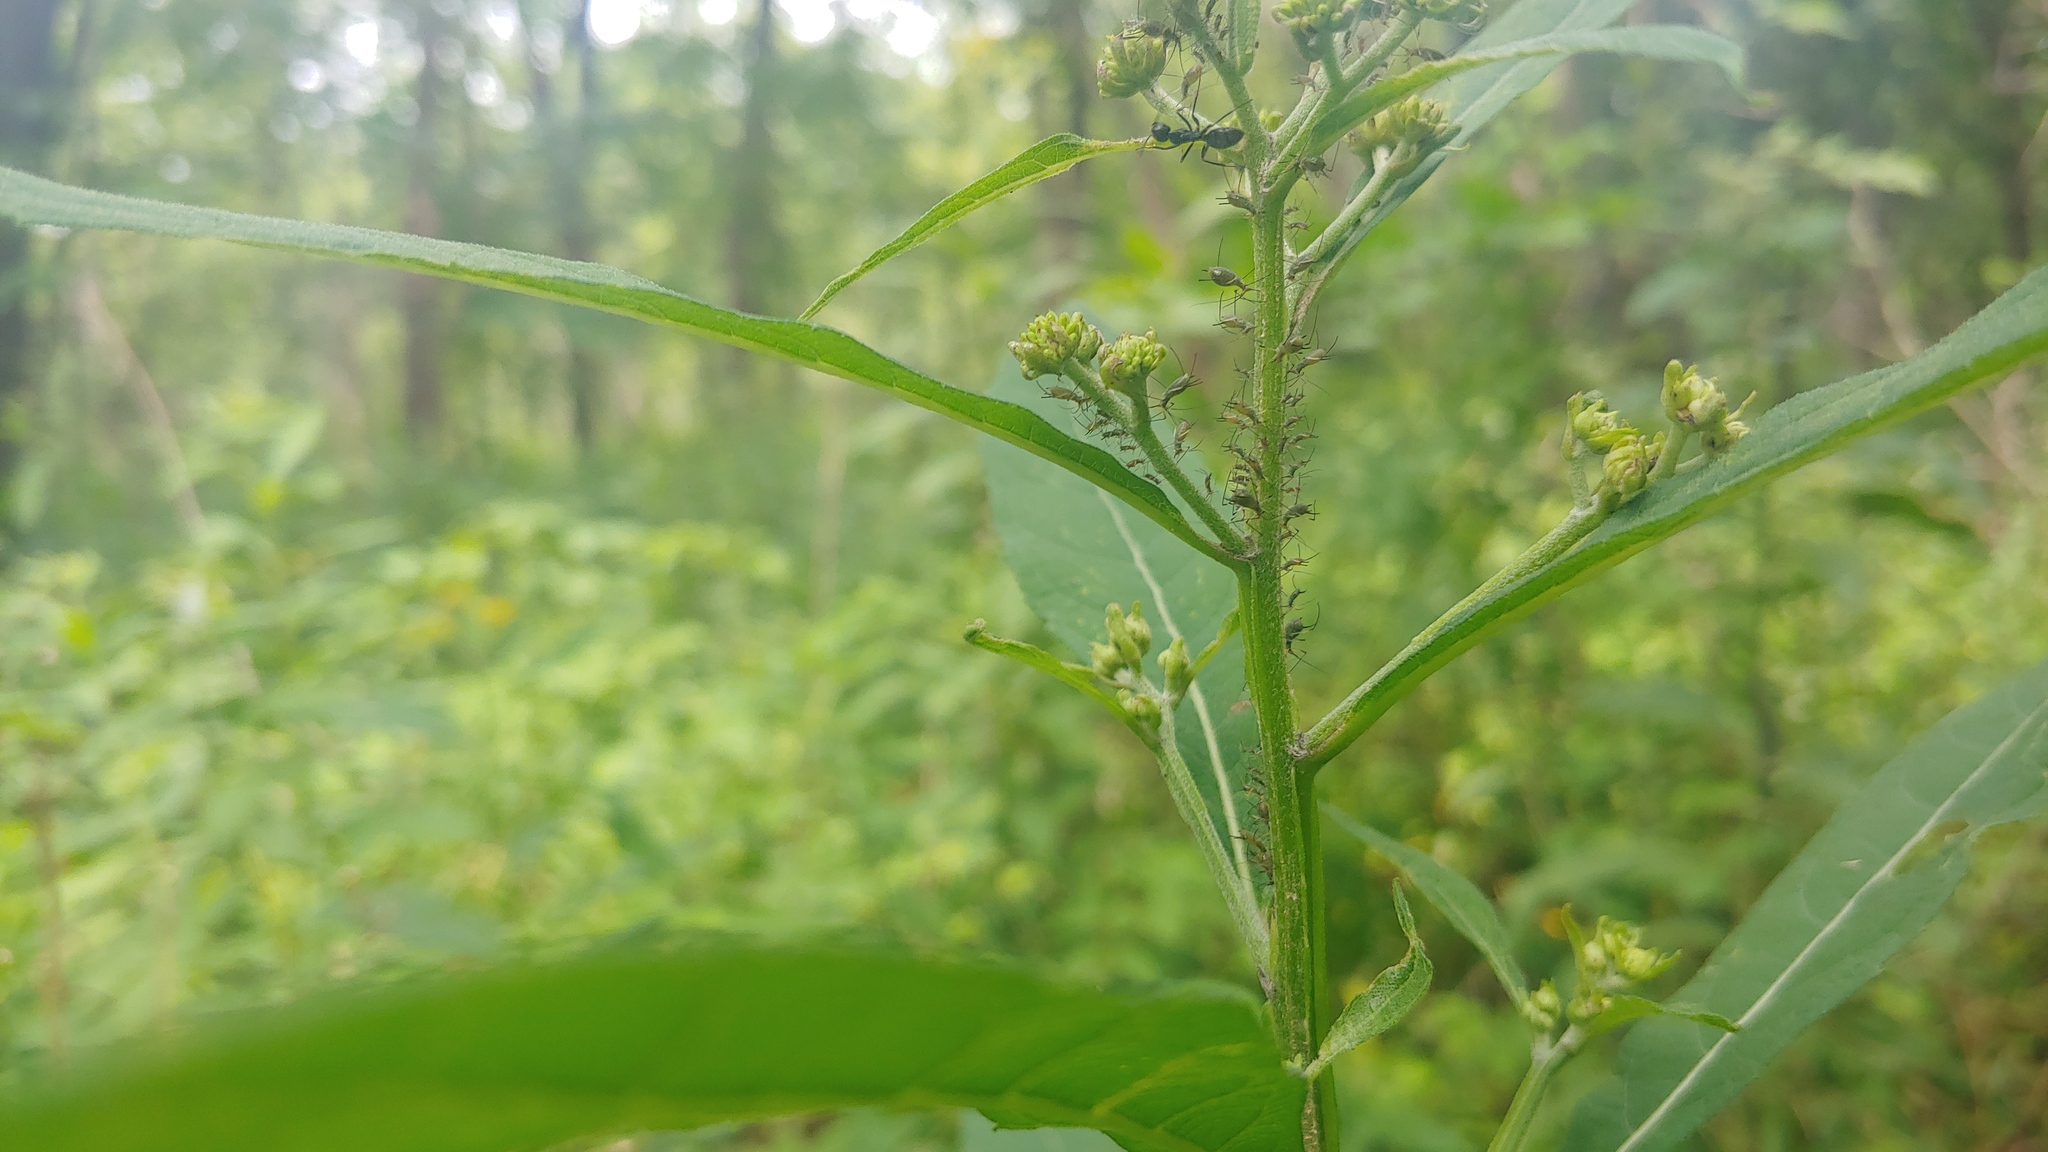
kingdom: Animalia
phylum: Arthropoda
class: Insecta
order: Hemiptera
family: Aphididae
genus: Uroleucon
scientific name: Uroleucon rurale
